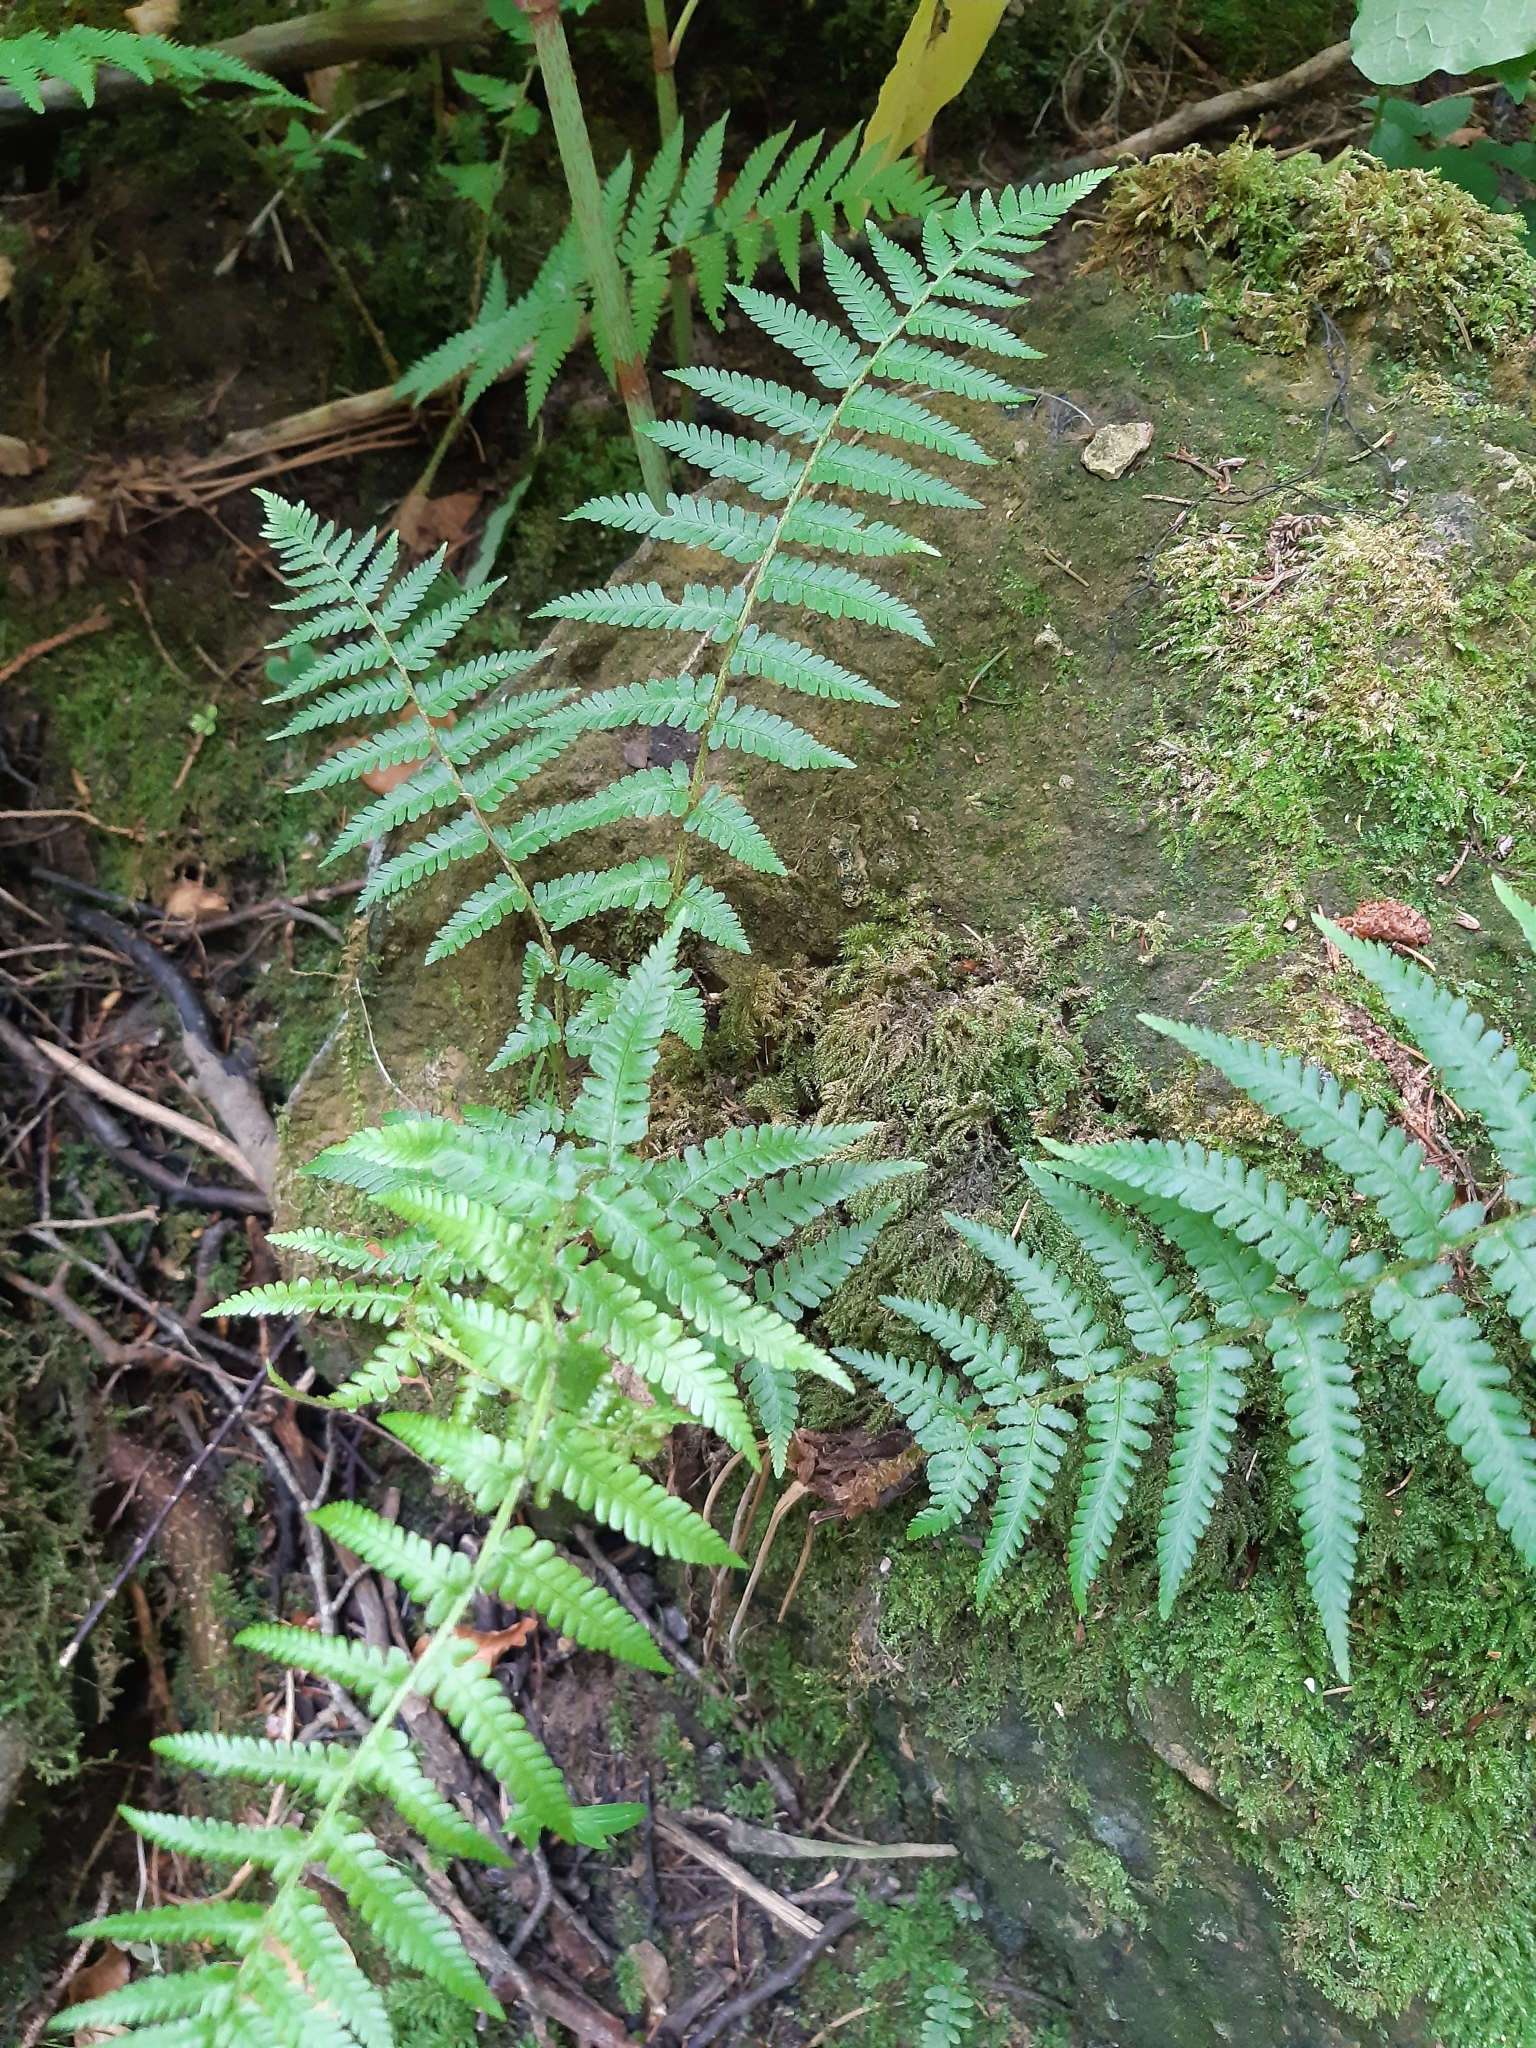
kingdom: Plantae
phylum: Tracheophyta
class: Polypodiopsida
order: Polypodiales
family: Dryopteridaceae
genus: Dryopteris
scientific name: Dryopteris filix-mas
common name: Male fern
